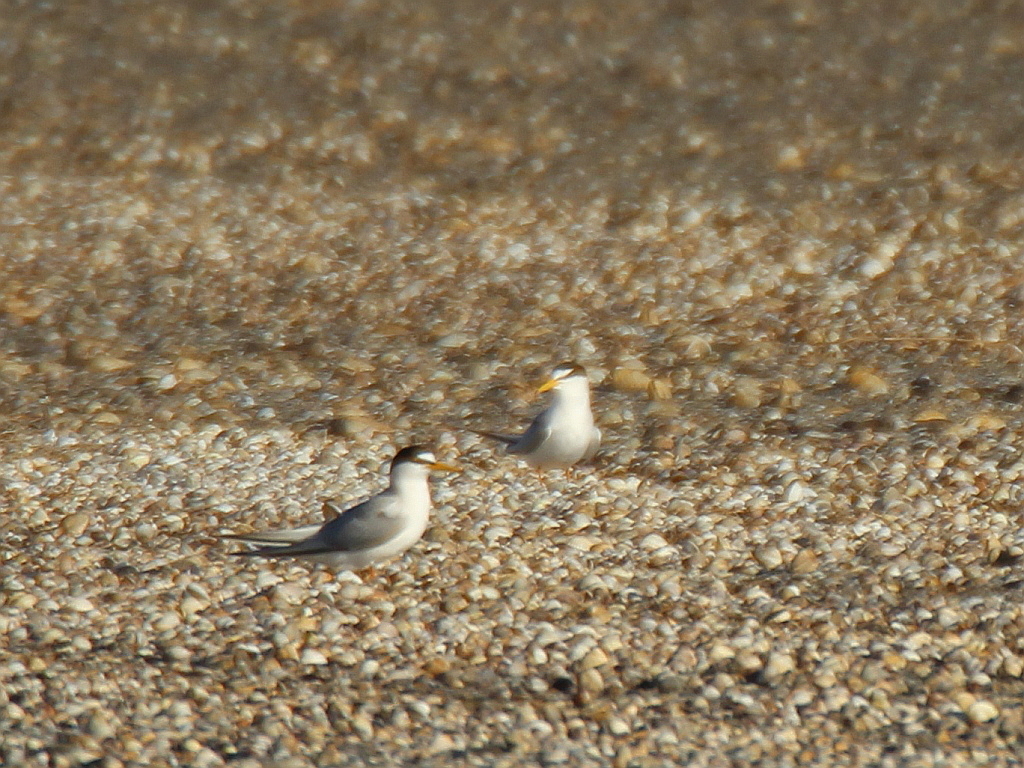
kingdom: Animalia
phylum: Chordata
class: Aves
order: Charadriiformes
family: Laridae
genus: Sternula
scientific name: Sternula albifrons
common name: Little tern
